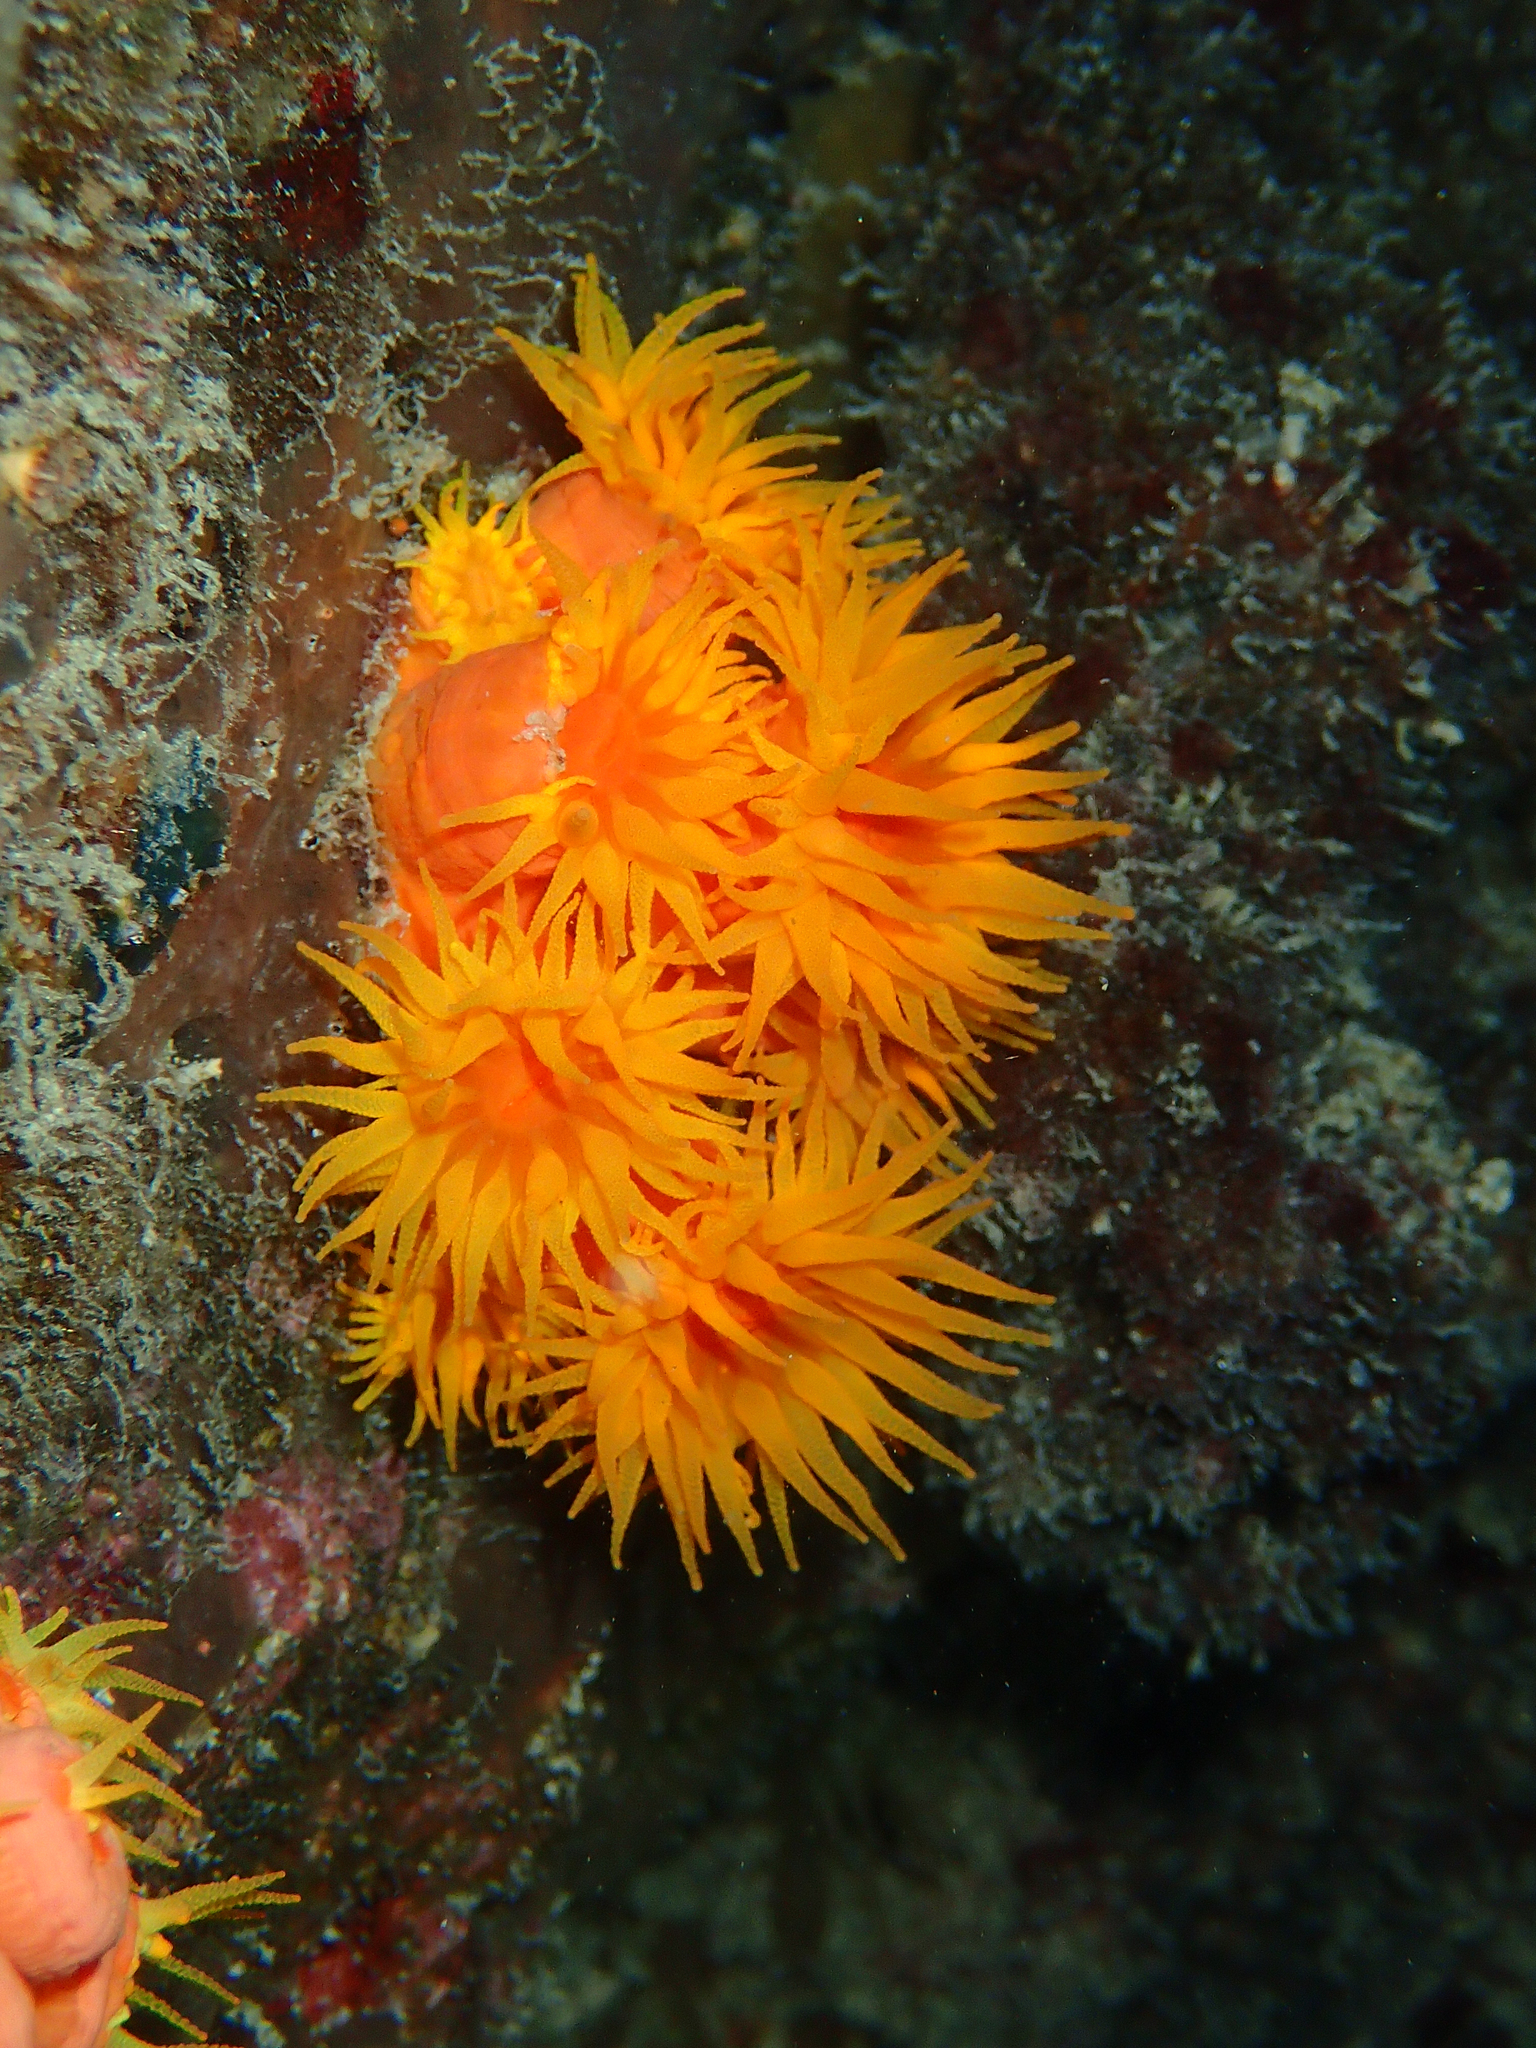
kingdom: Animalia
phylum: Cnidaria
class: Anthozoa
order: Scleractinia
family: Dendrophylliidae
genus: Tubastraea
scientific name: Tubastraea coccinea
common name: Orange cup coral
